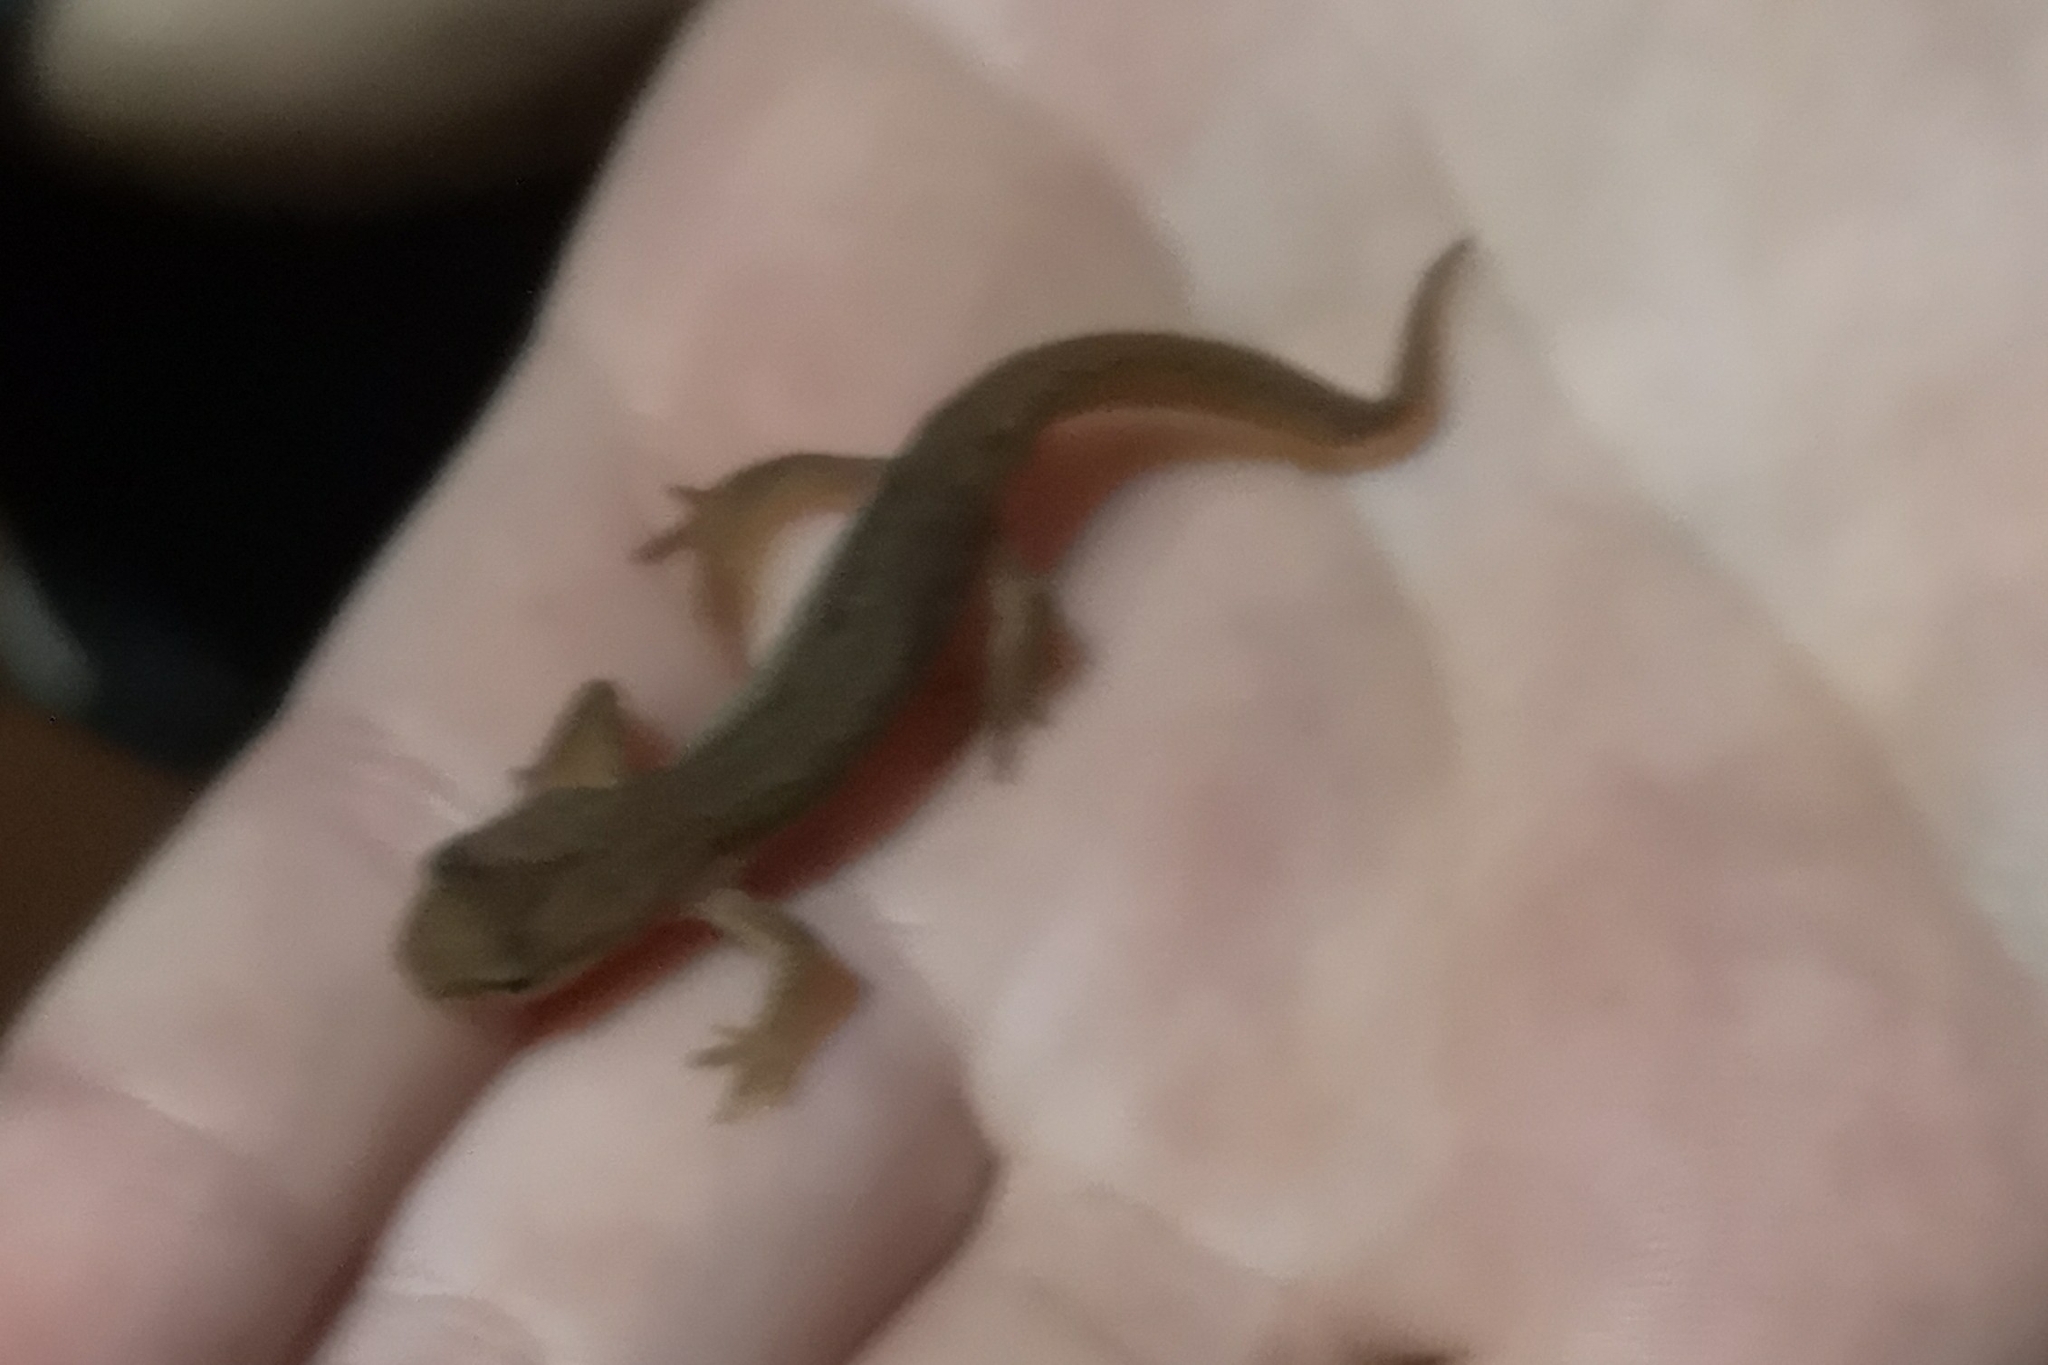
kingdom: Animalia
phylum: Chordata
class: Amphibia
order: Caudata
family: Salamandridae
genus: Lissotriton
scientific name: Lissotriton
